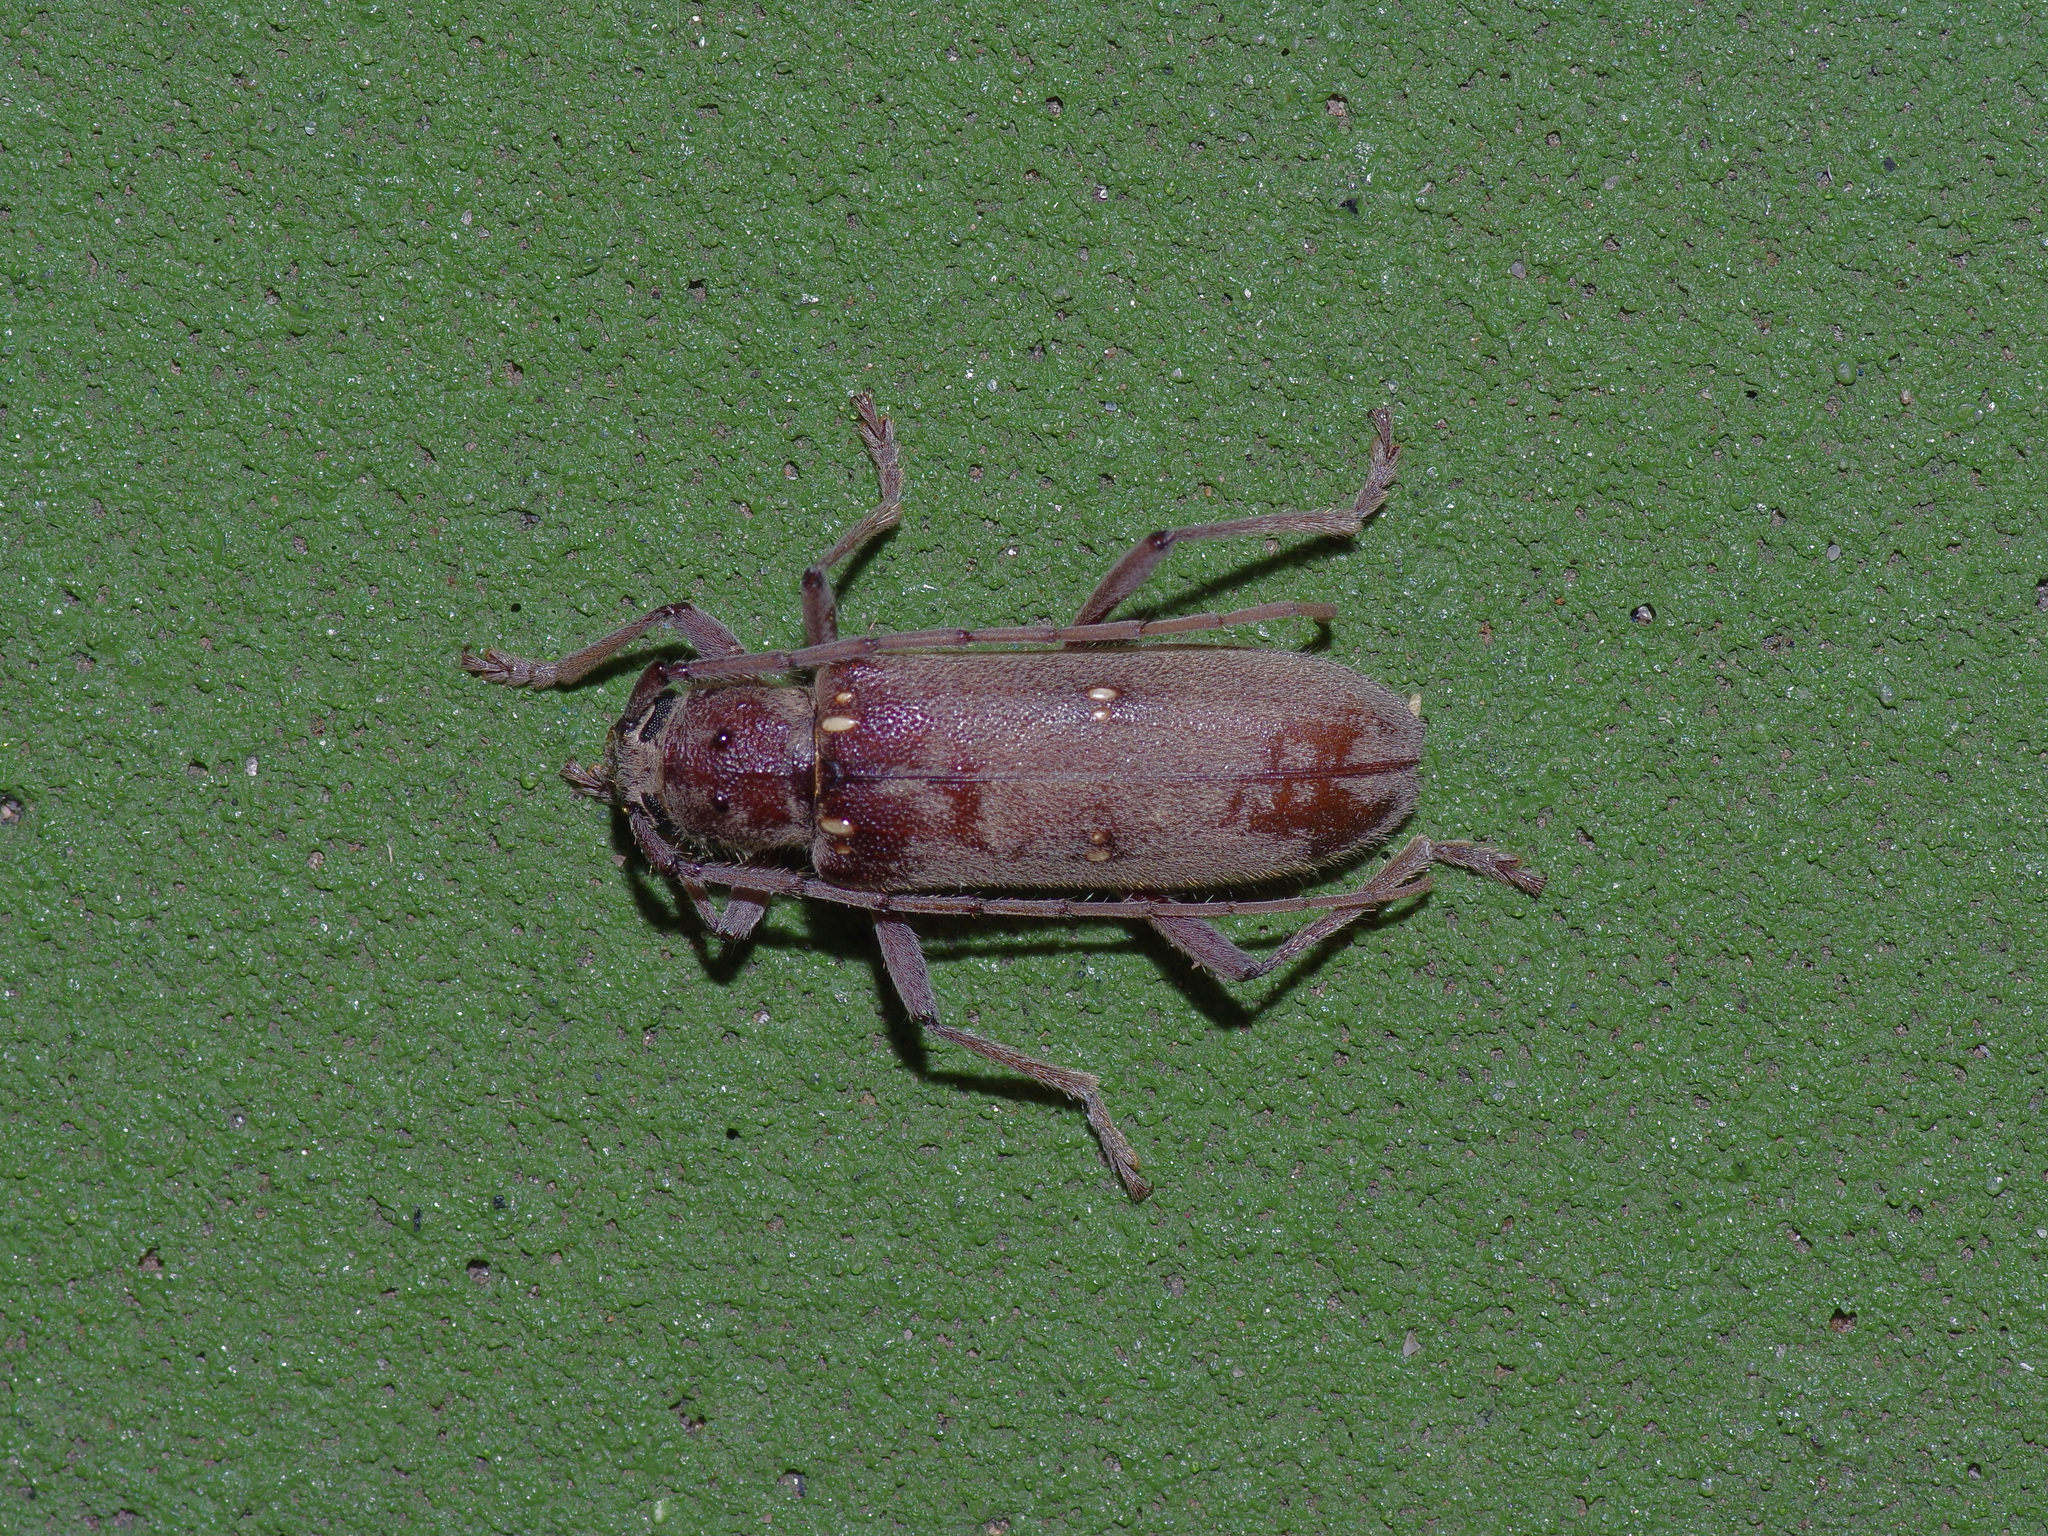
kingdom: Animalia
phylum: Arthropoda
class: Insecta
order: Coleoptera
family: Cerambycidae
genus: Eburia
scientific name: Eburia mutica
